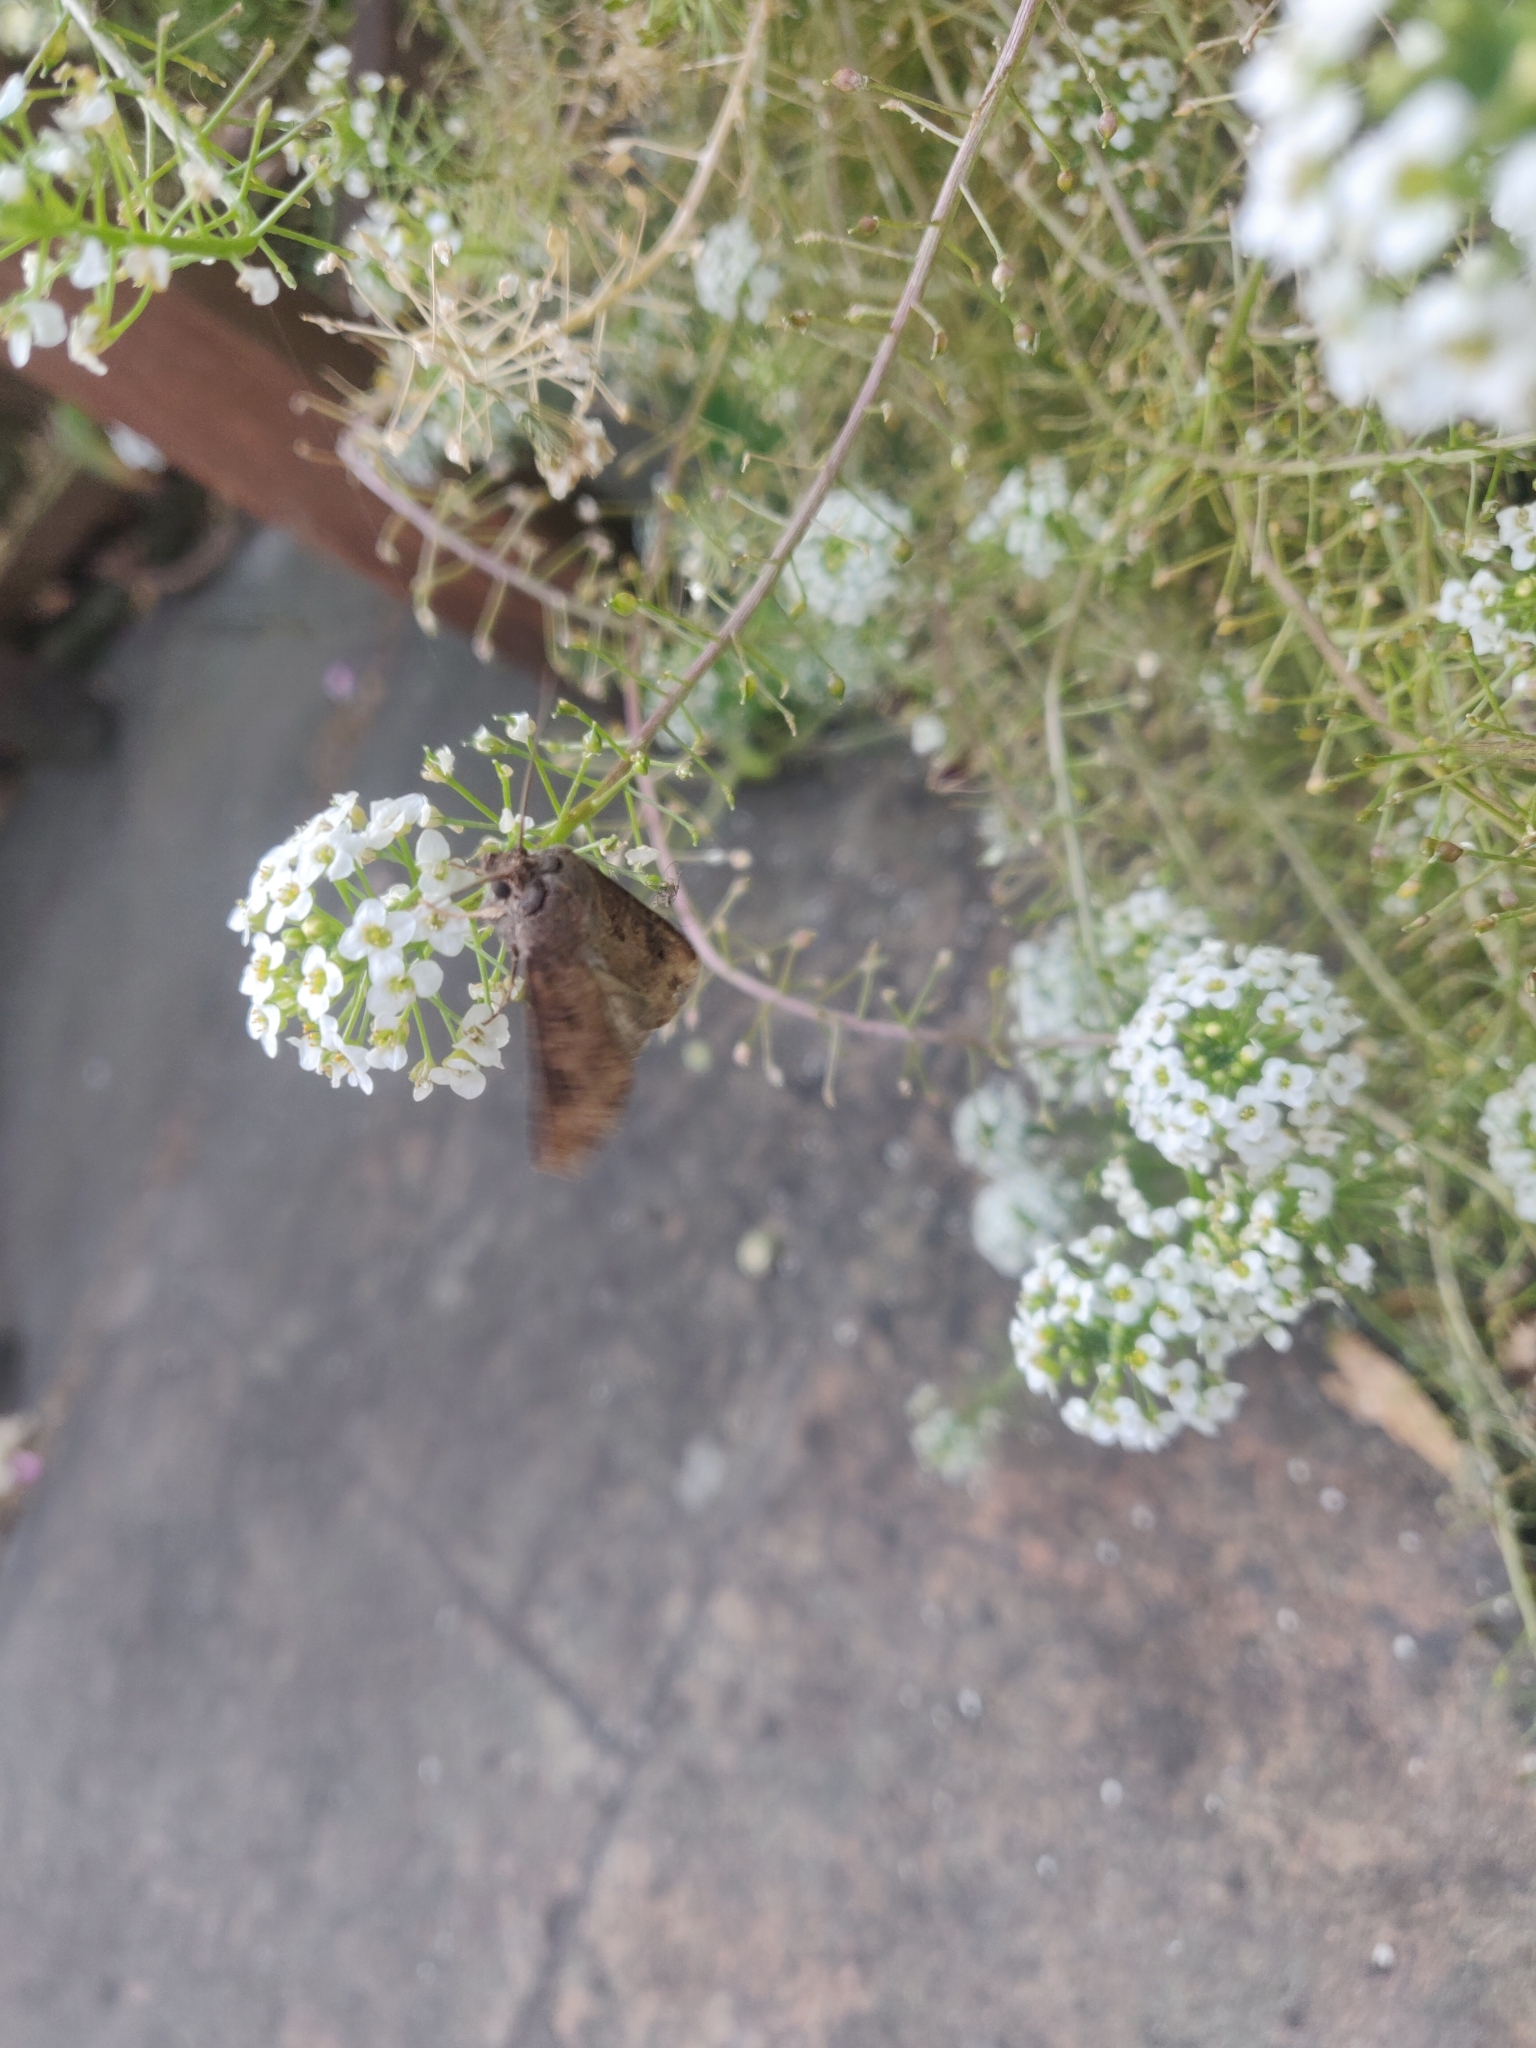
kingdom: Animalia
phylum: Arthropoda
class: Insecta
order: Lepidoptera
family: Noctuidae
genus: Agrotis
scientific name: Agrotis ipsilon
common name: Dark sword-grass
